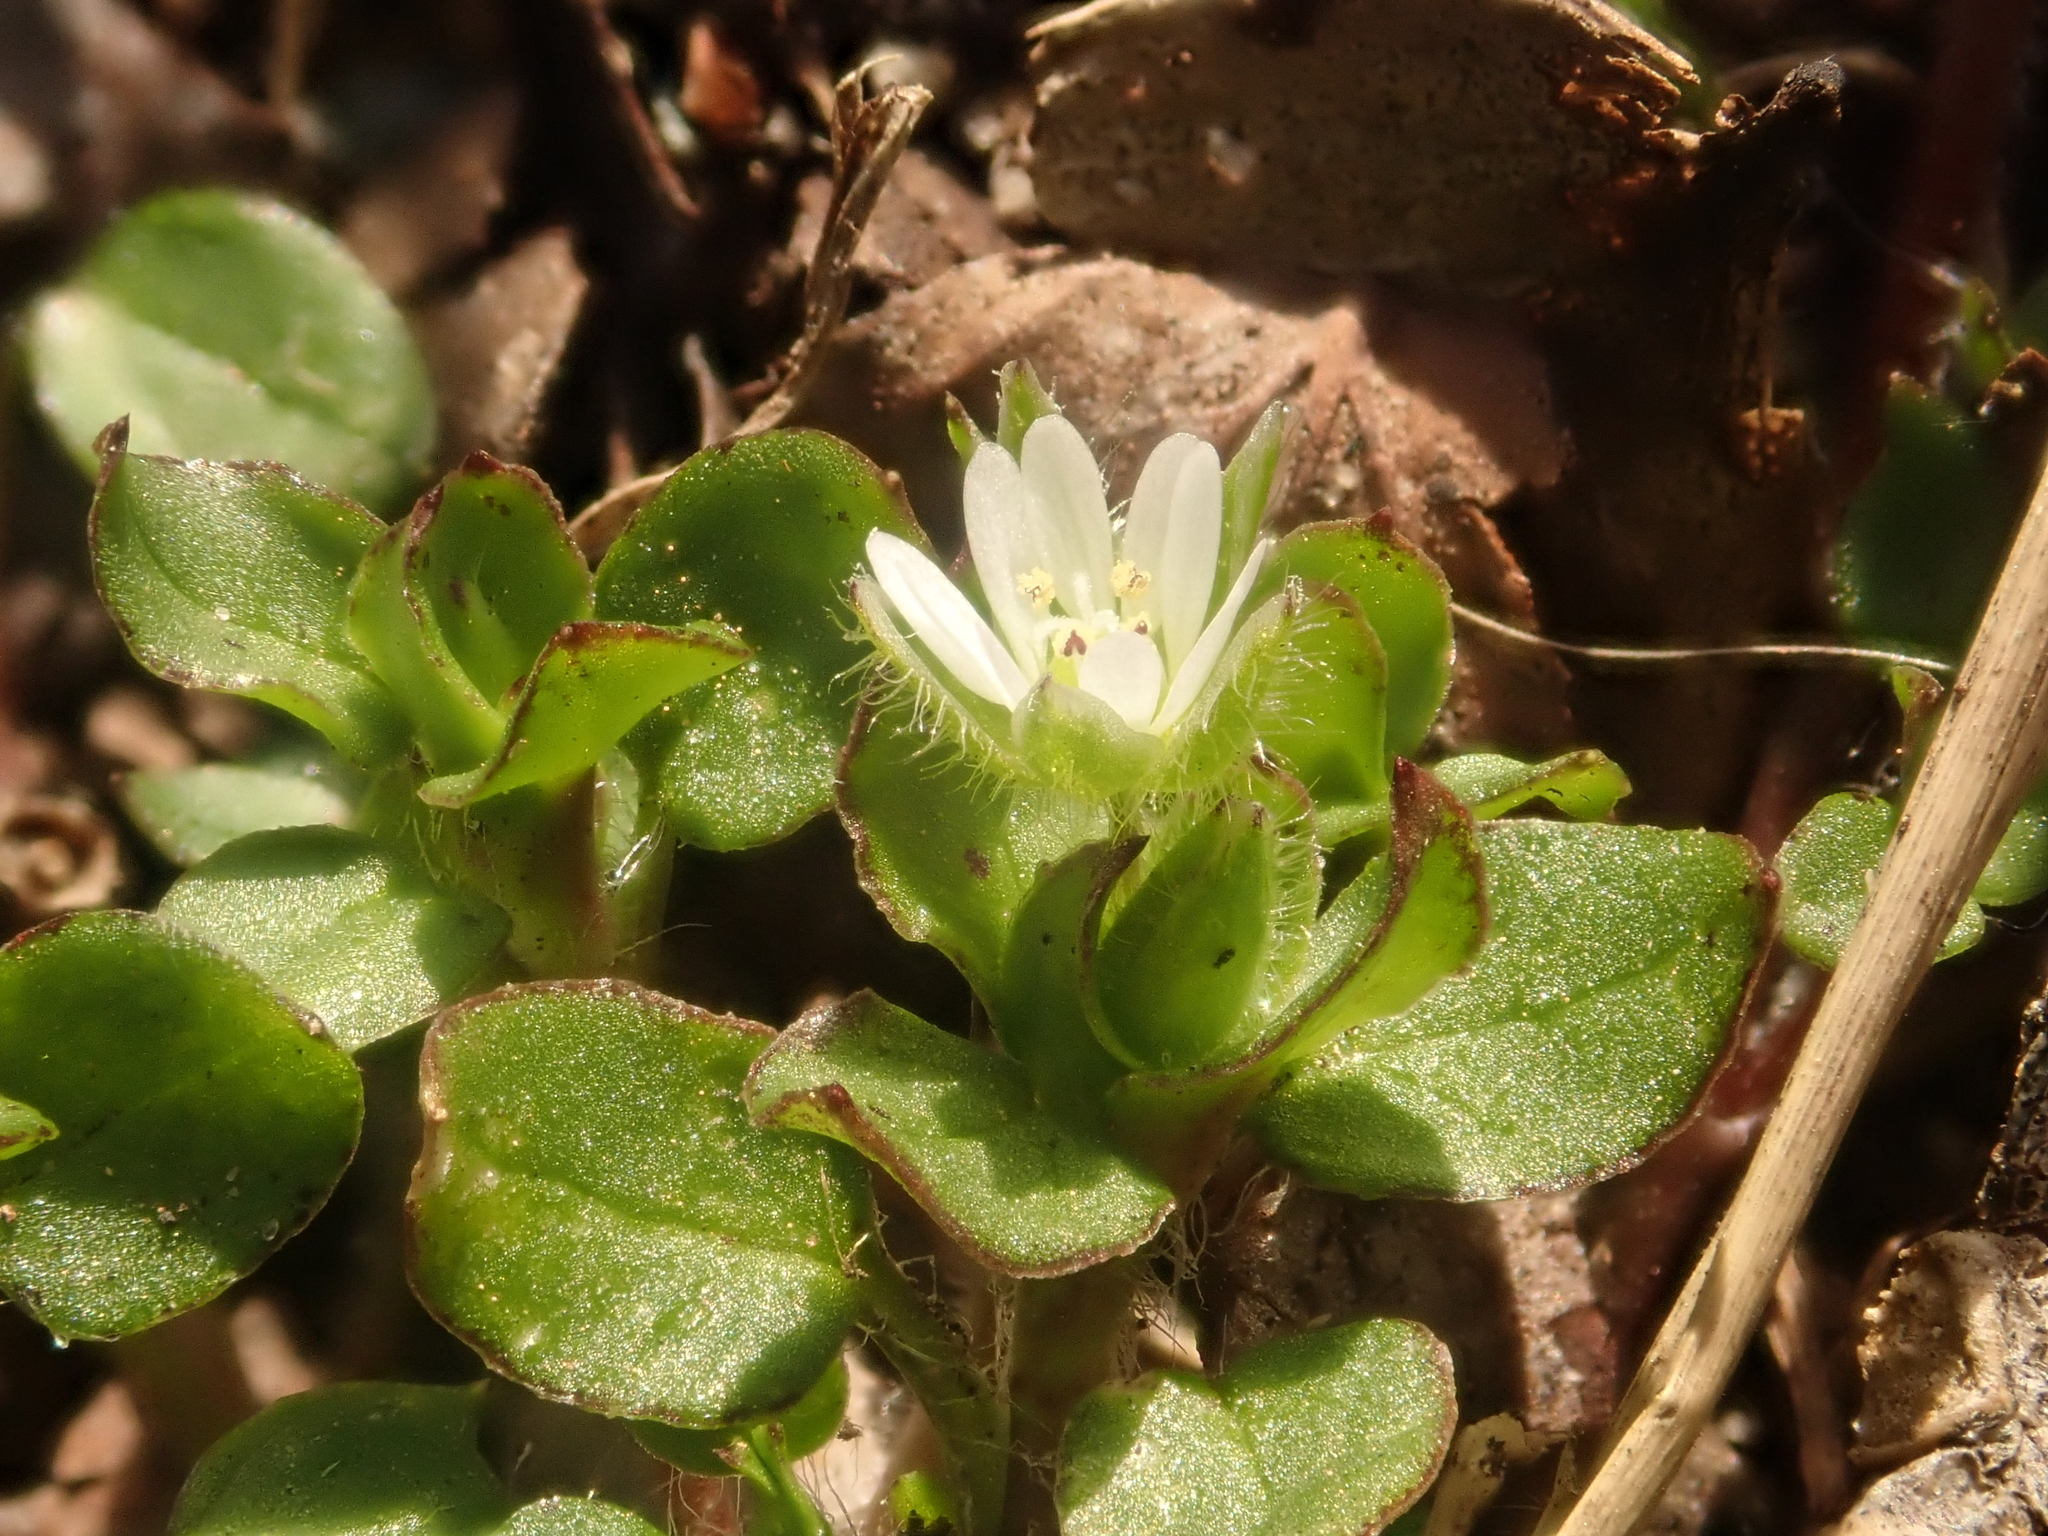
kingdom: Plantae
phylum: Tracheophyta
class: Magnoliopsida
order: Caryophyllales
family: Caryophyllaceae
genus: Stellaria
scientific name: Stellaria media
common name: Common chickweed
